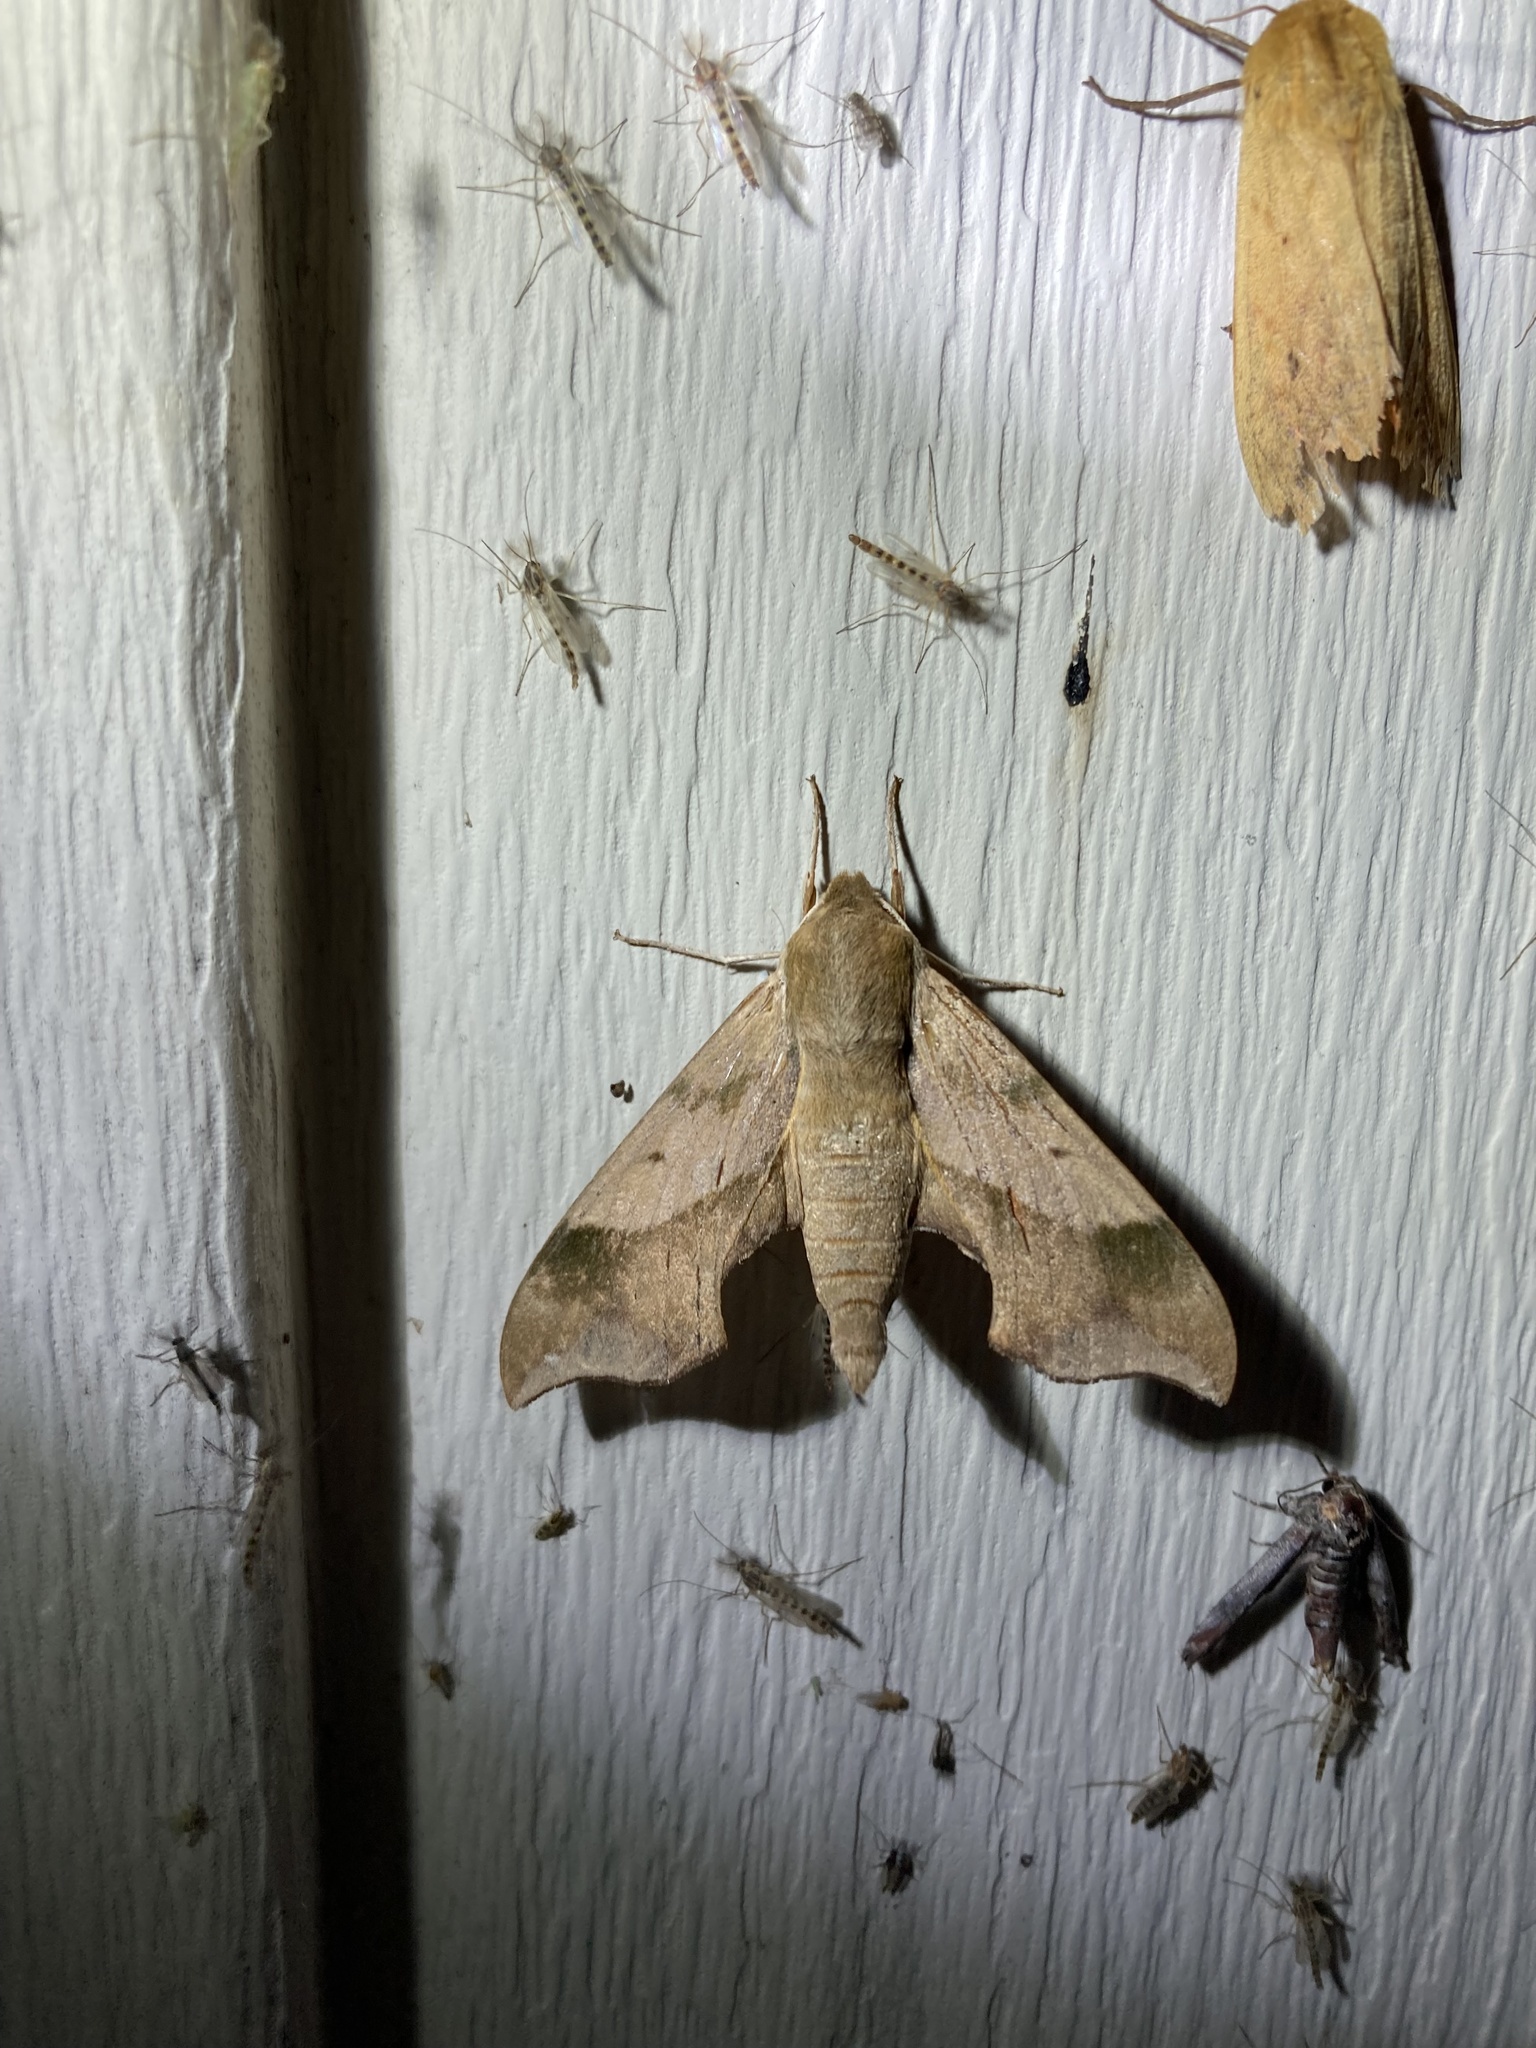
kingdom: Animalia
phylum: Arthropoda
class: Insecta
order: Lepidoptera
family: Sphingidae
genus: Darapsa
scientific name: Darapsa myron
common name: Hog sphinx
